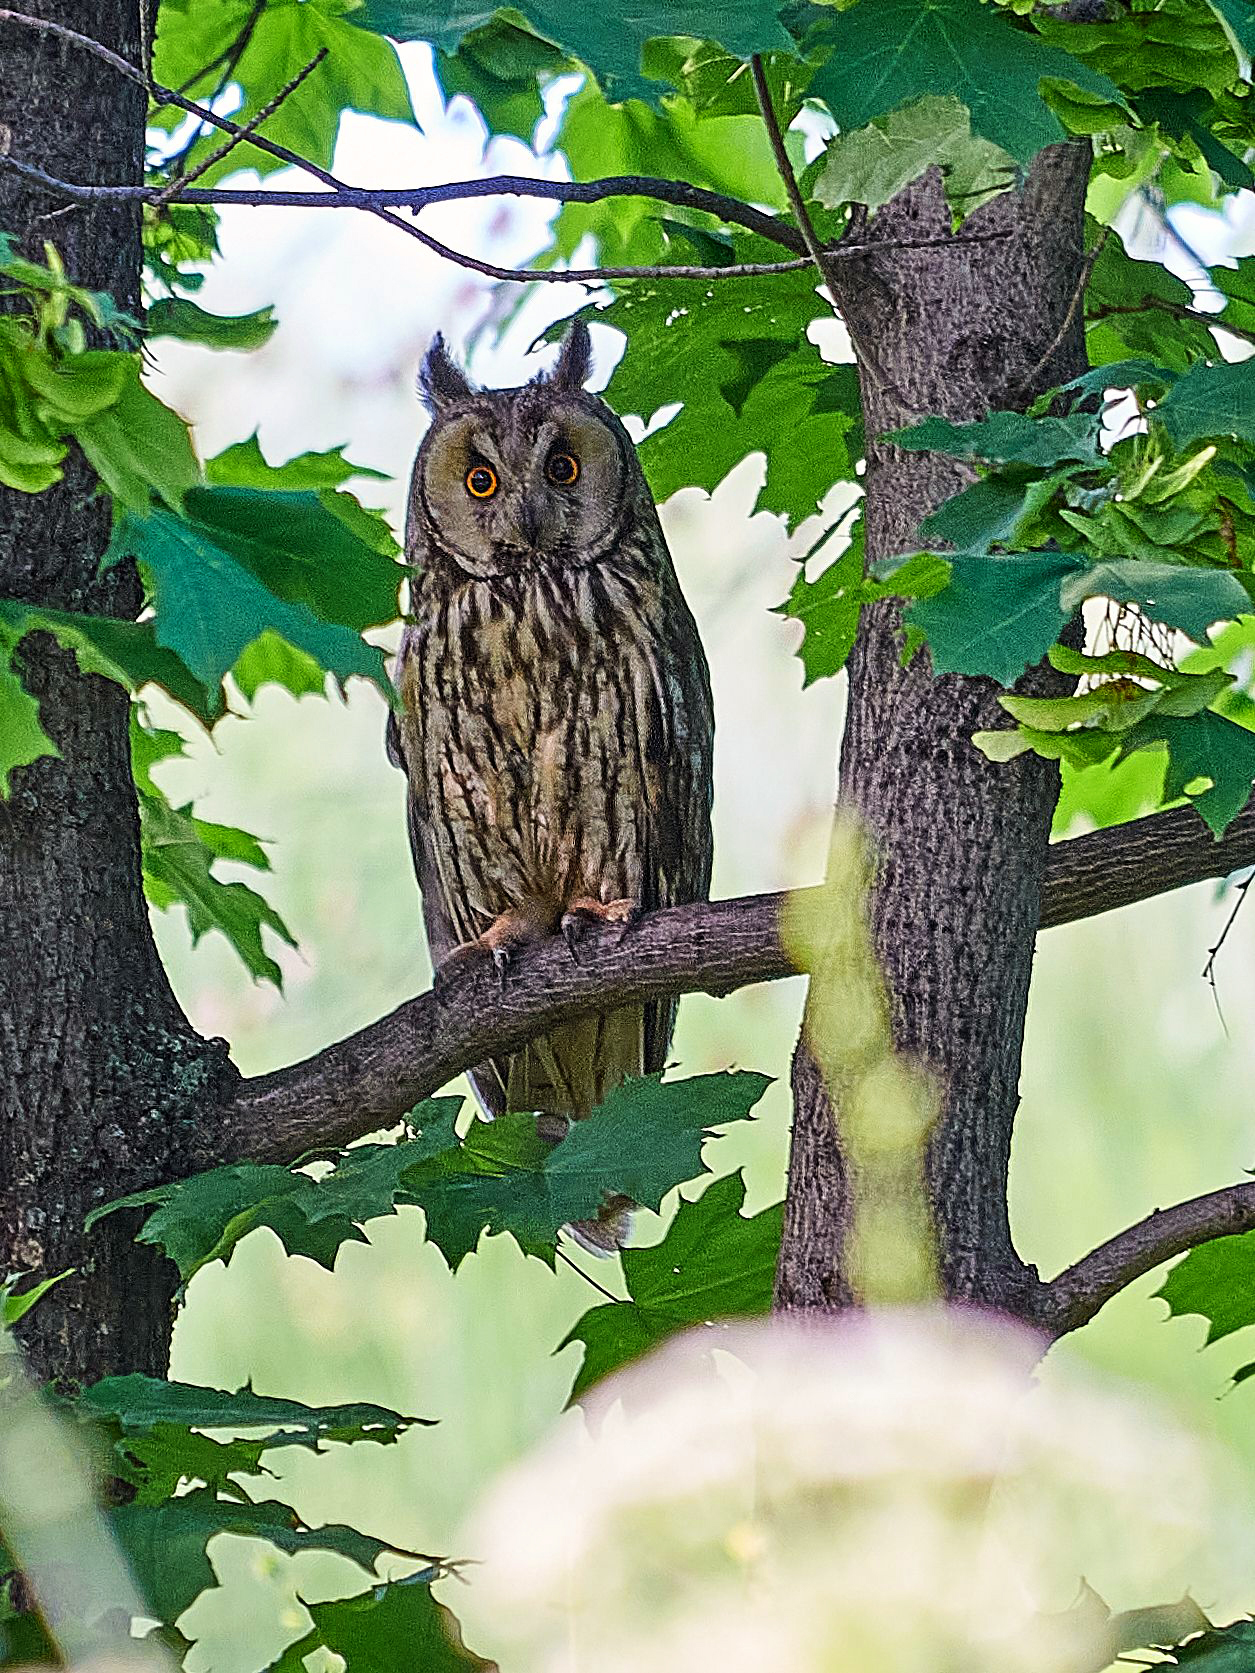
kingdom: Animalia
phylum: Chordata
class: Aves
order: Strigiformes
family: Strigidae
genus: Asio
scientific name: Asio otus
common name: Long-eared owl
